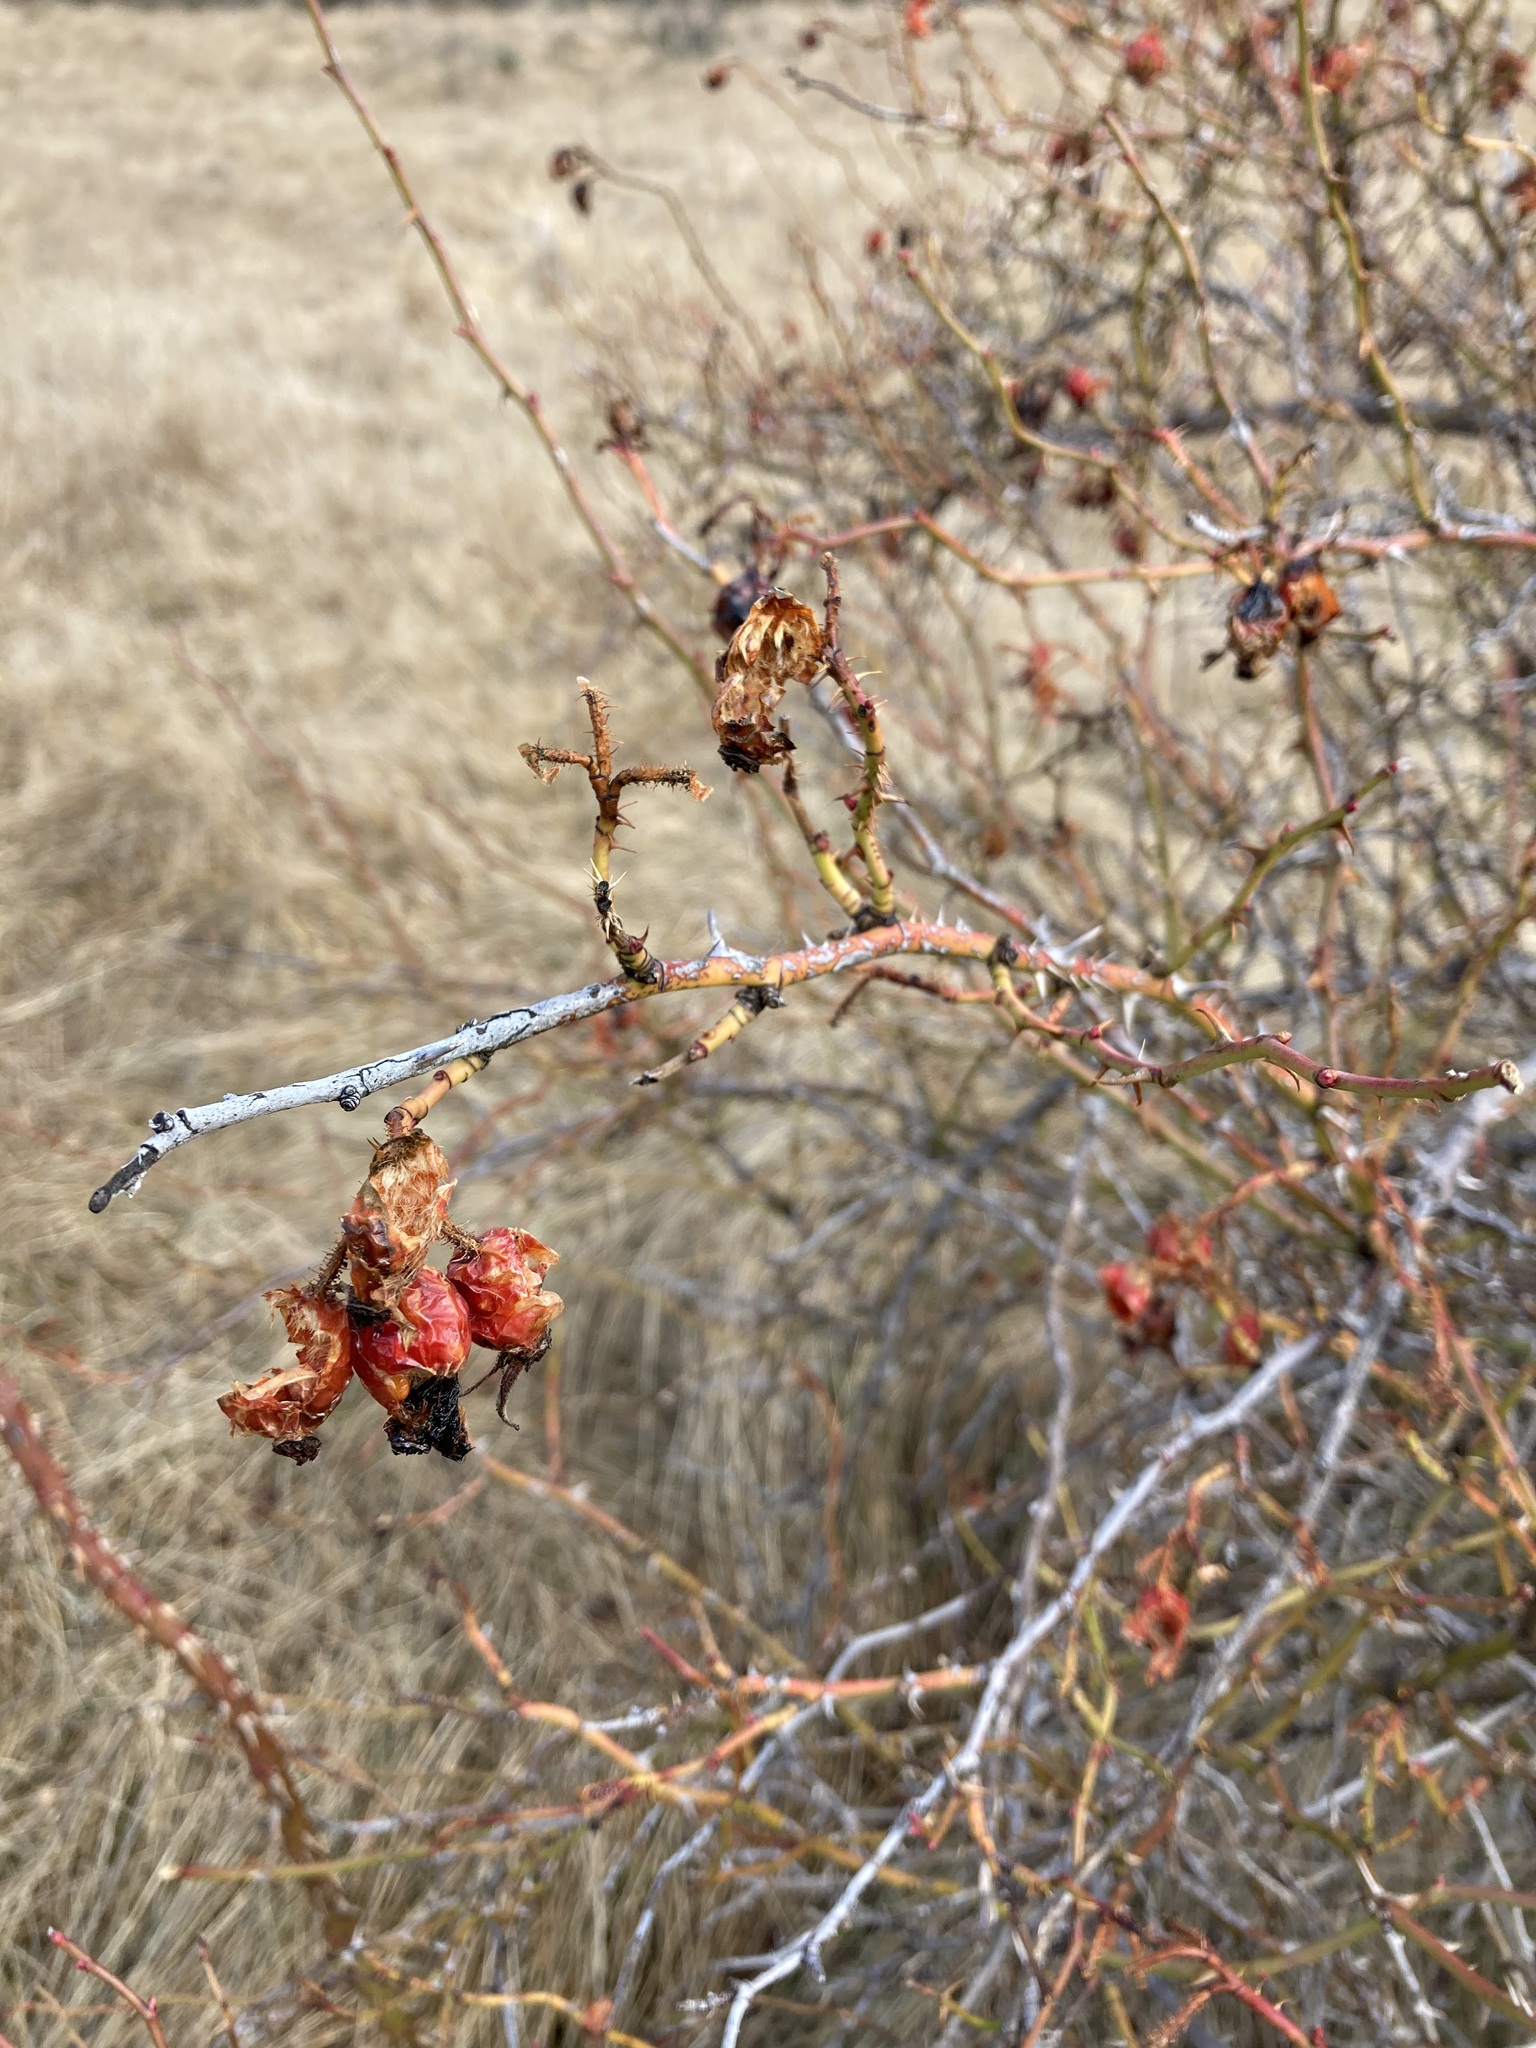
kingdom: Plantae
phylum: Tracheophyta
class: Magnoliopsida
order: Rosales
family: Rosaceae
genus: Rosa
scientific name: Rosa rubiginosa
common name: Sweet-briar
